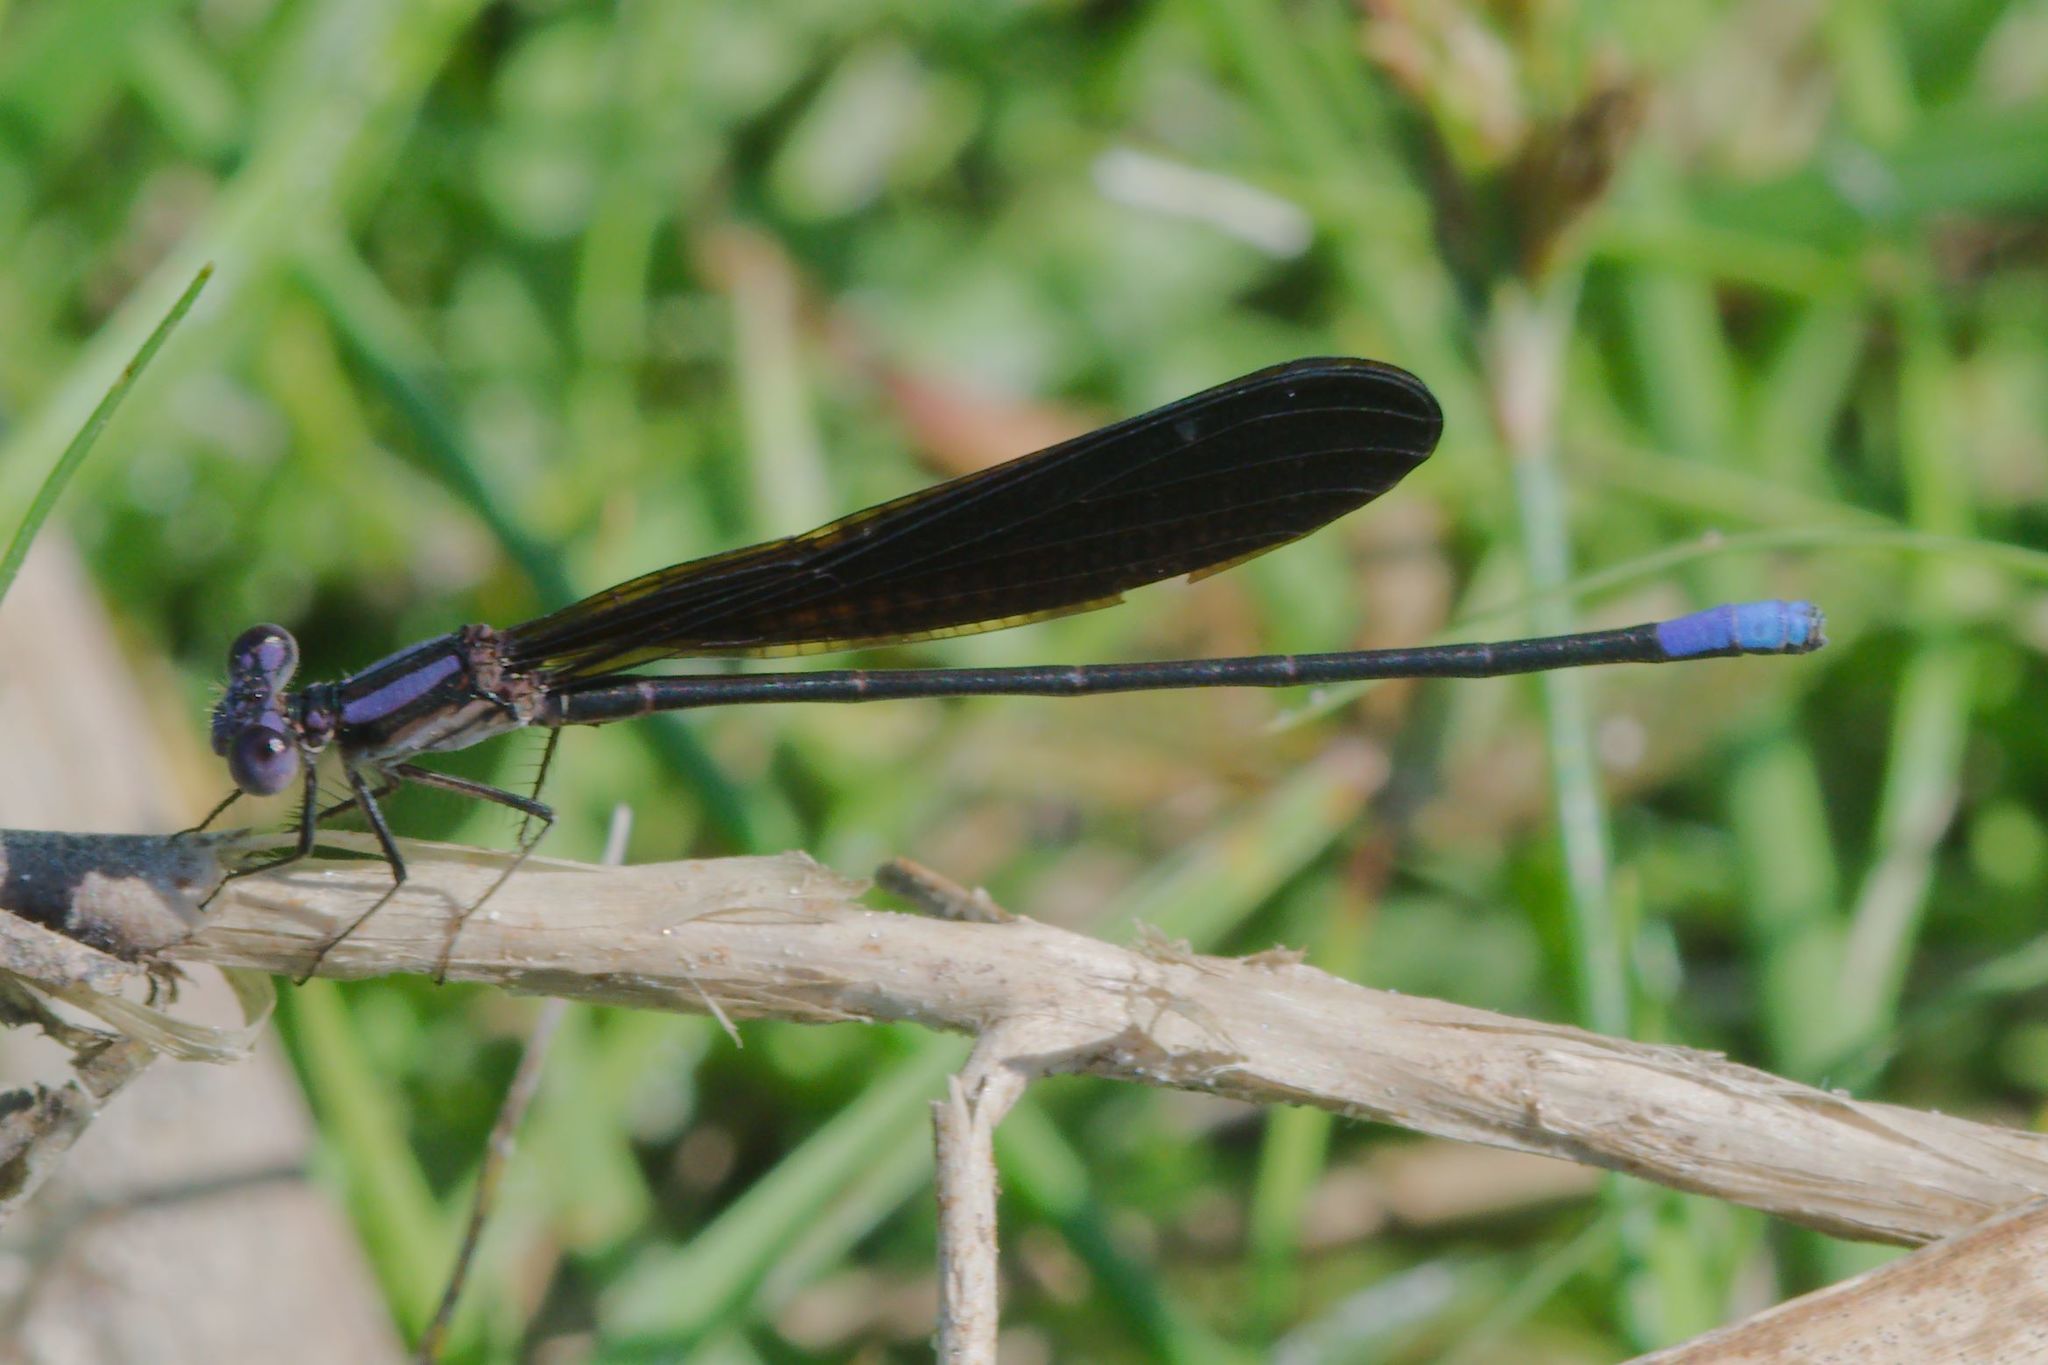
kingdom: Animalia
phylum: Arthropoda
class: Insecta
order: Odonata
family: Coenagrionidae
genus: Argia
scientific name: Argia fumipennis
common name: Variable dancer
